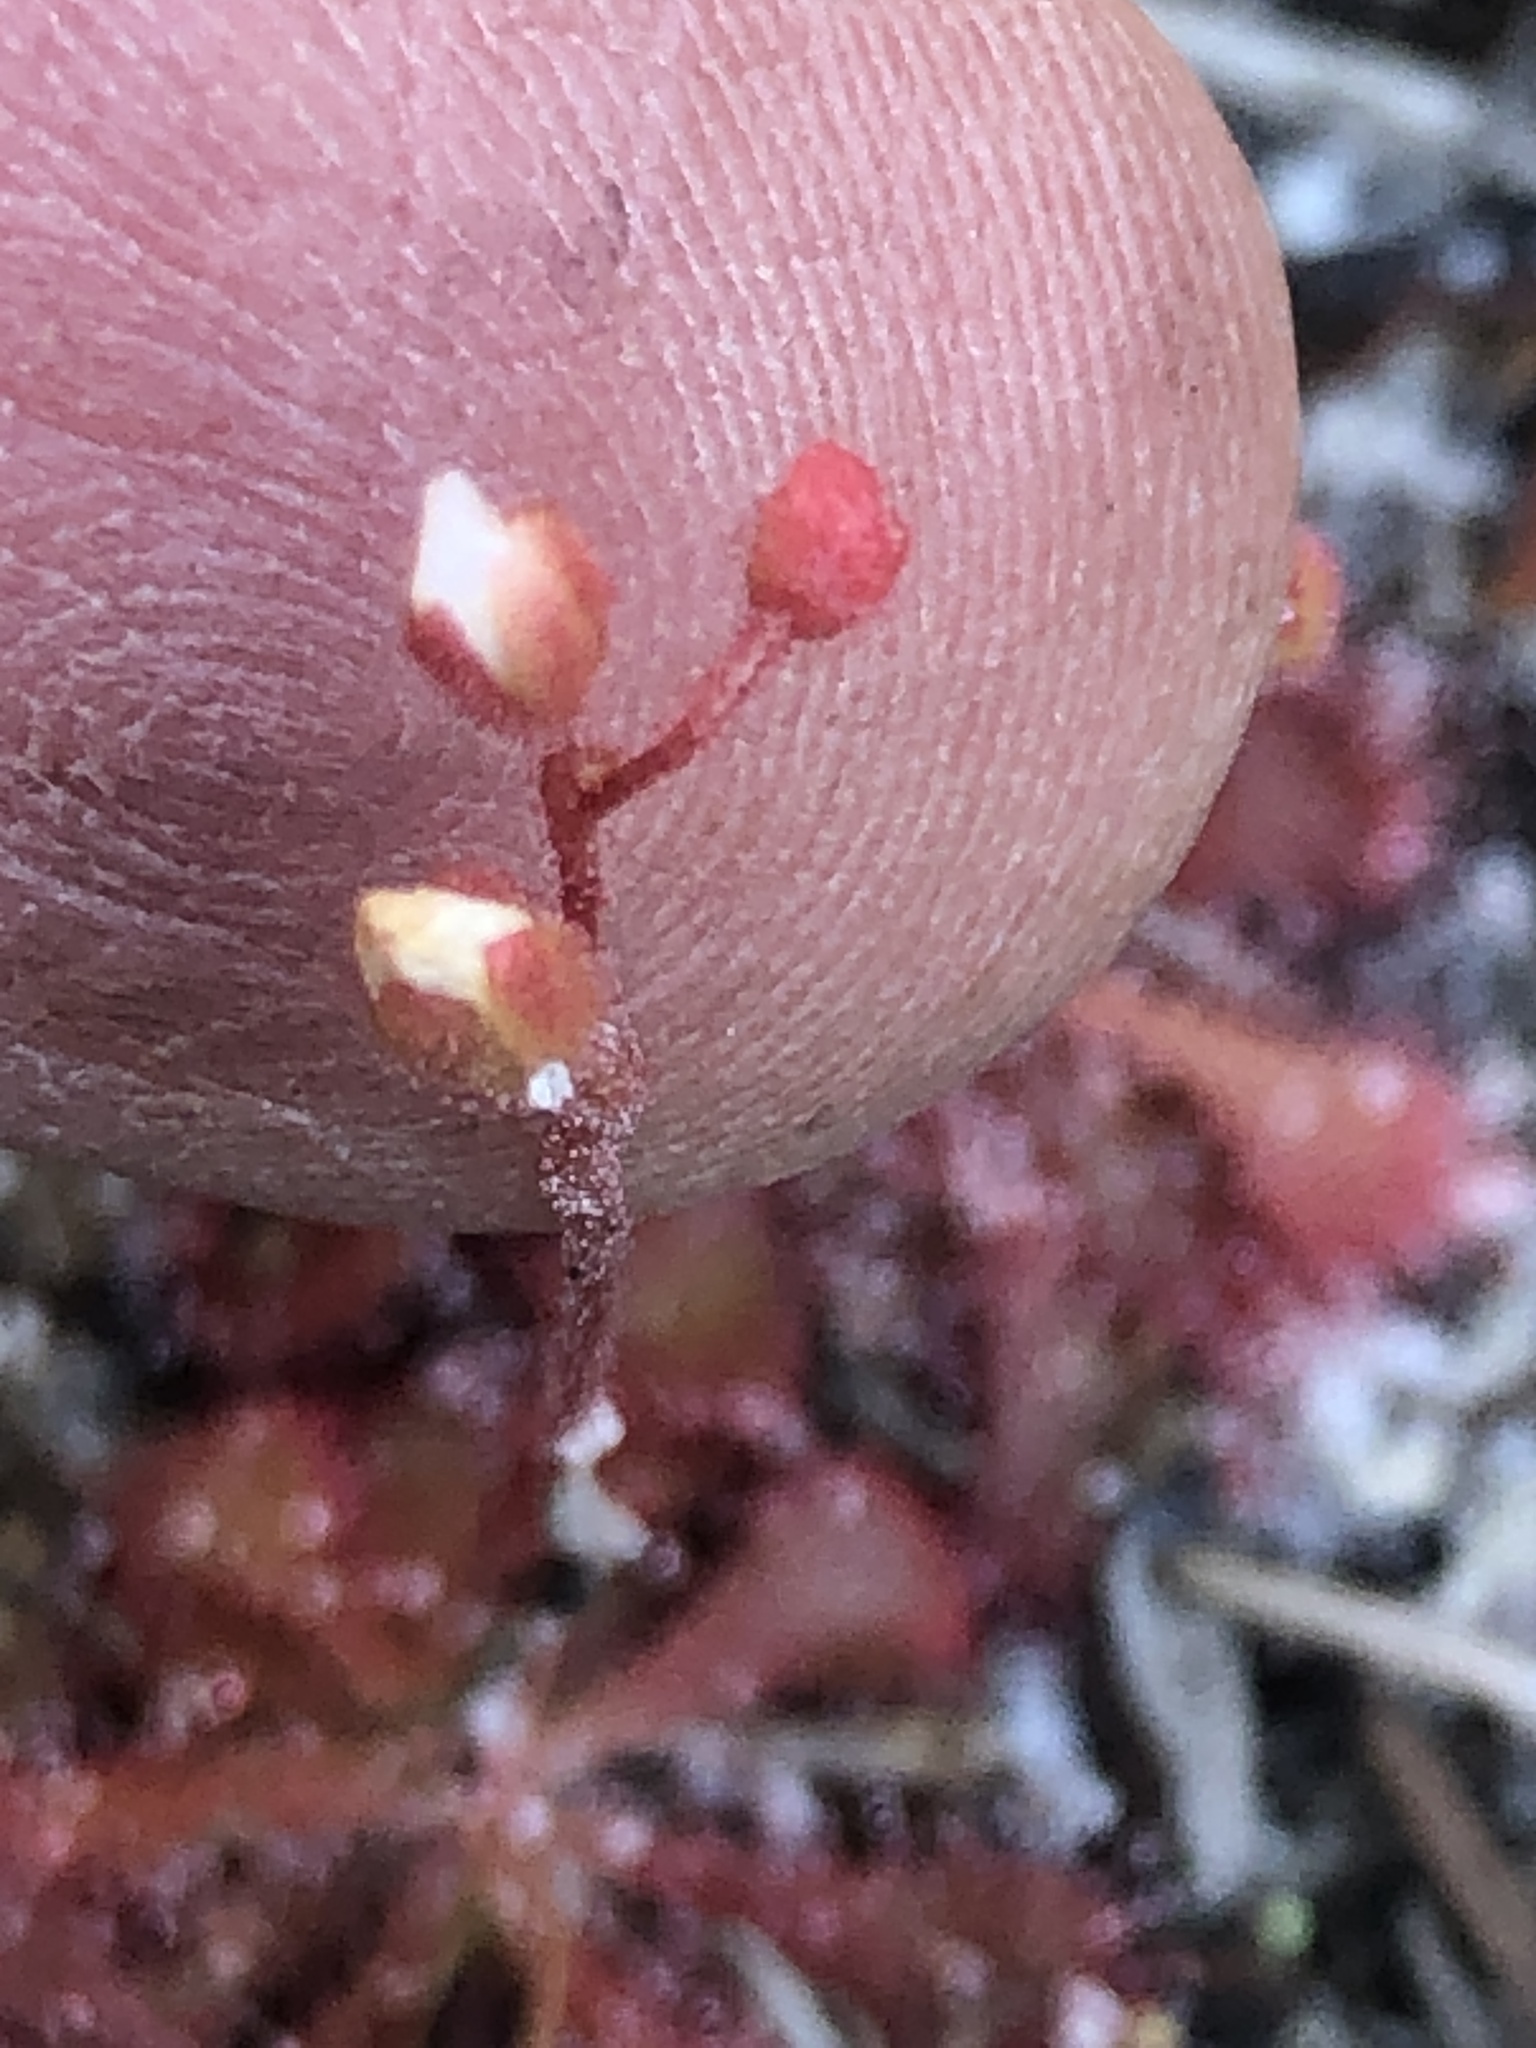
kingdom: Plantae
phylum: Tracheophyta
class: Magnoliopsida
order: Caryophyllales
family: Droseraceae
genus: Drosera
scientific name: Drosera capillaris
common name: Pink sundew
